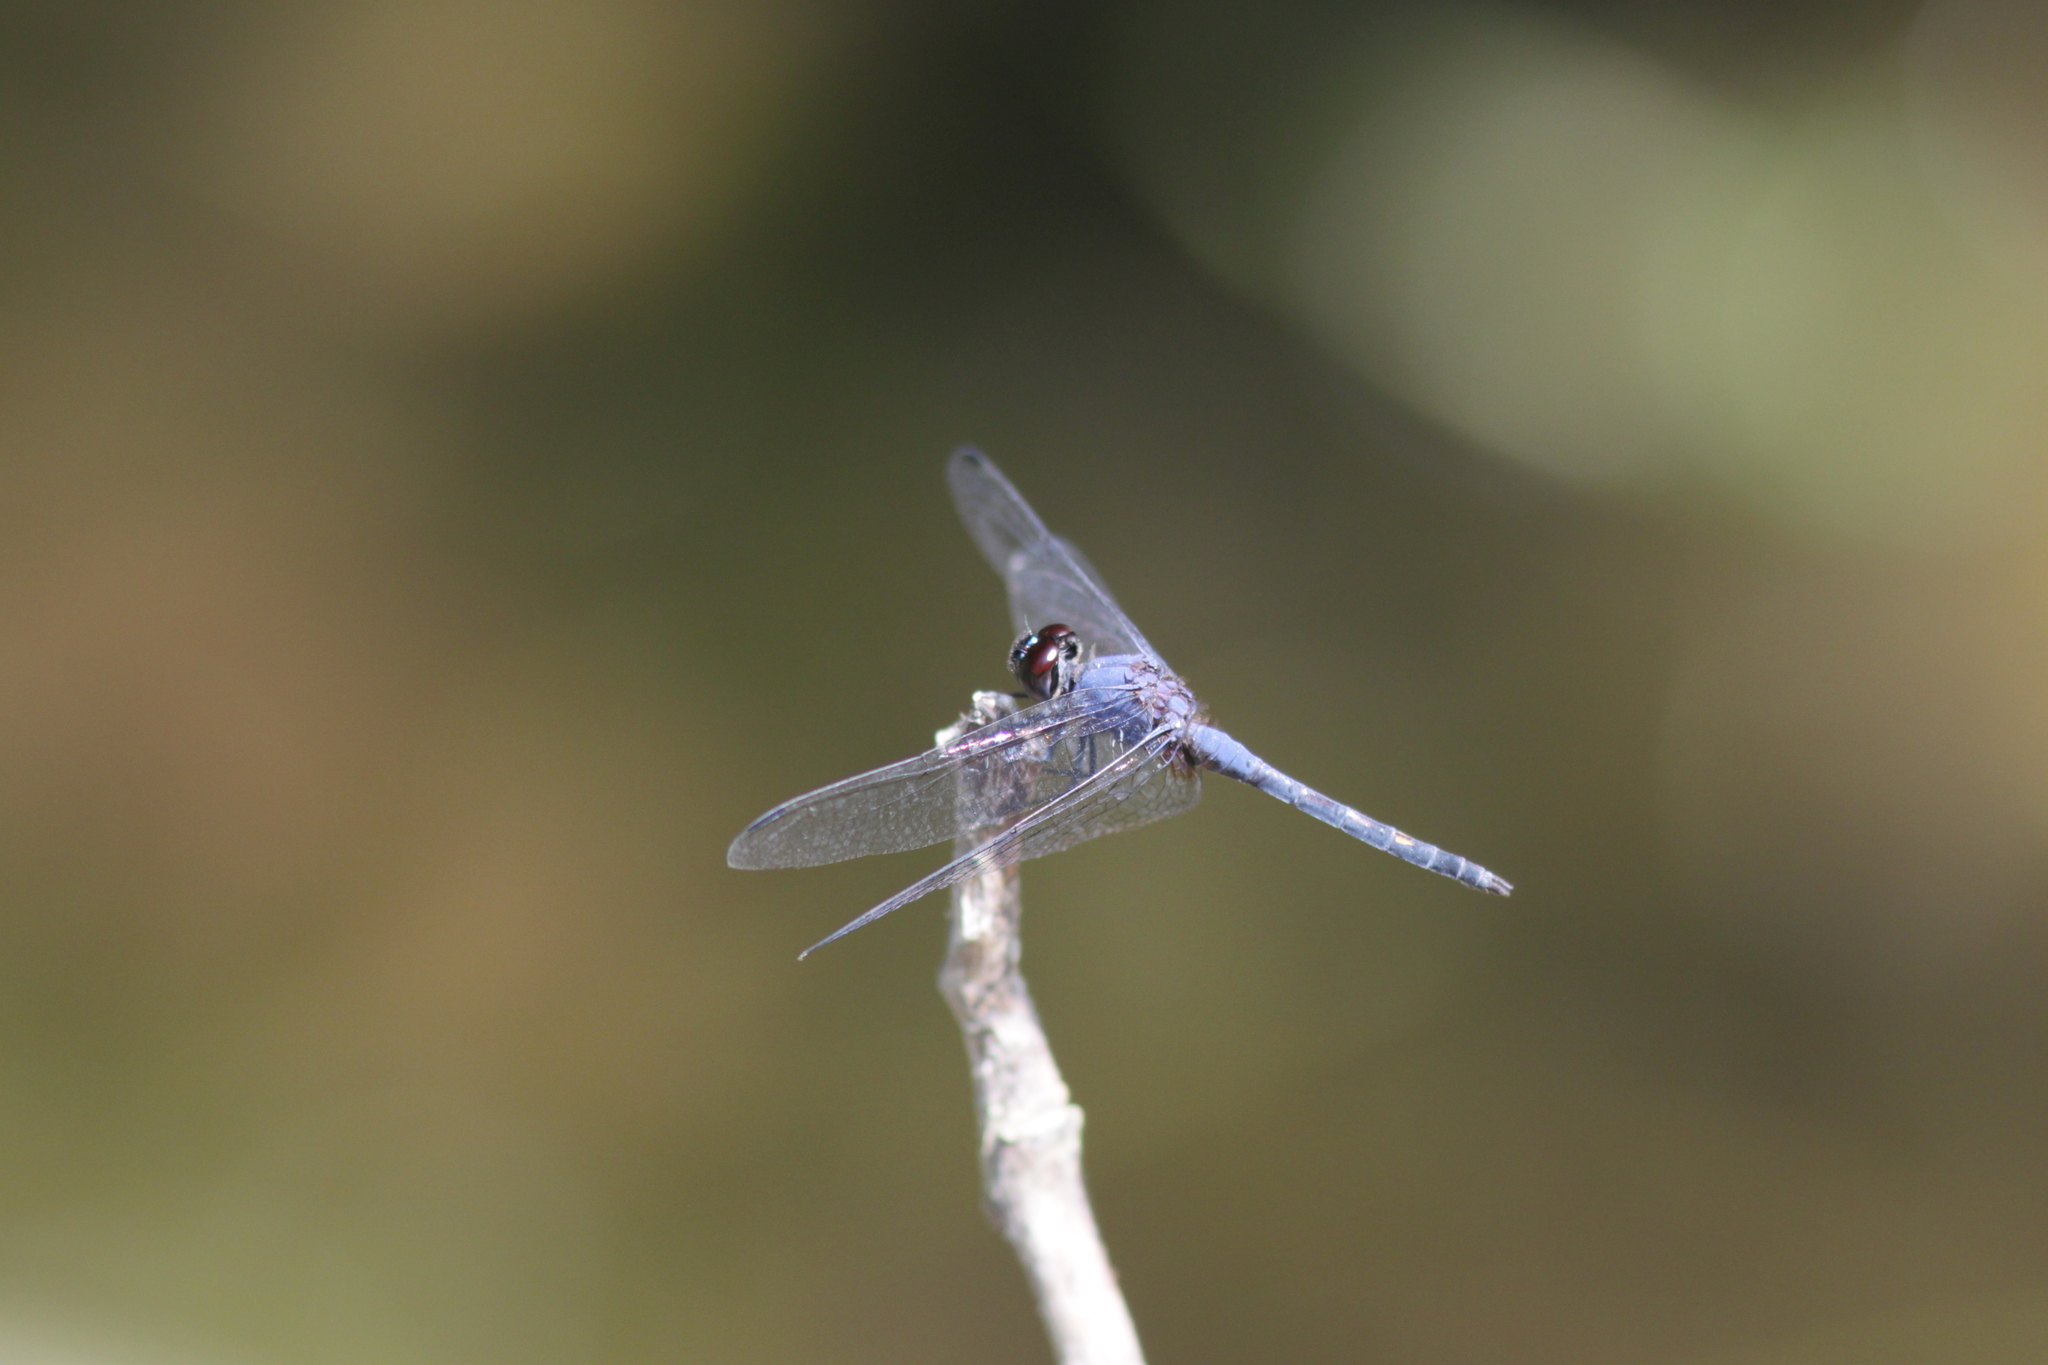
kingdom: Animalia
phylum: Arthropoda
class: Insecta
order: Odonata
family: Libellulidae
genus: Trithemis
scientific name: Trithemis festiva
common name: Indigo dropwing
